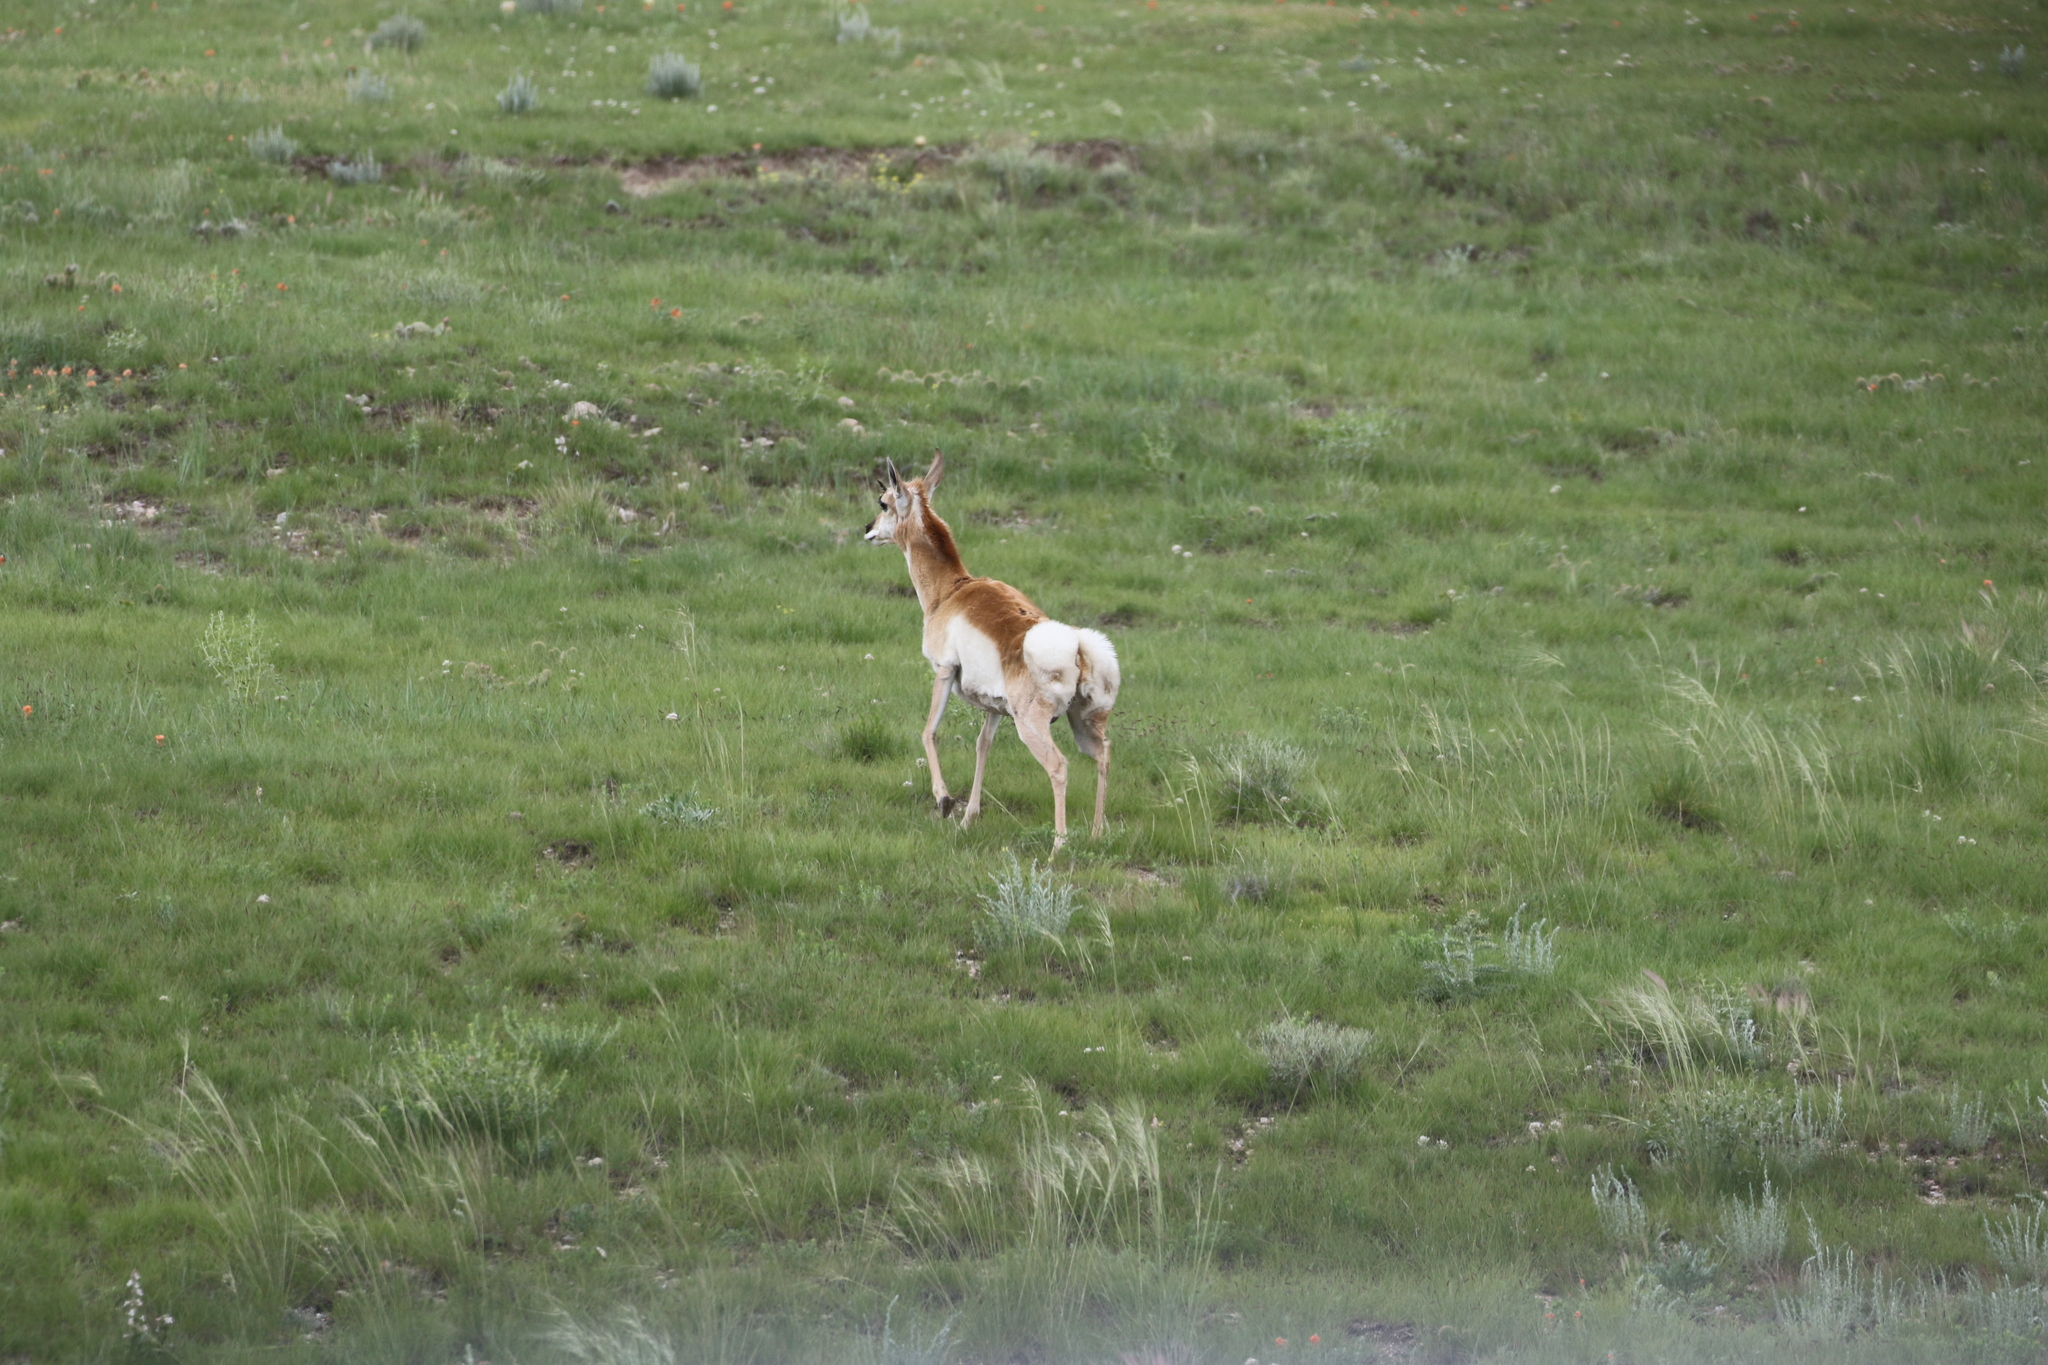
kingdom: Animalia
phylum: Chordata
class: Mammalia
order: Artiodactyla
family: Antilocapridae
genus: Antilocapra
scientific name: Antilocapra americana
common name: Pronghorn
